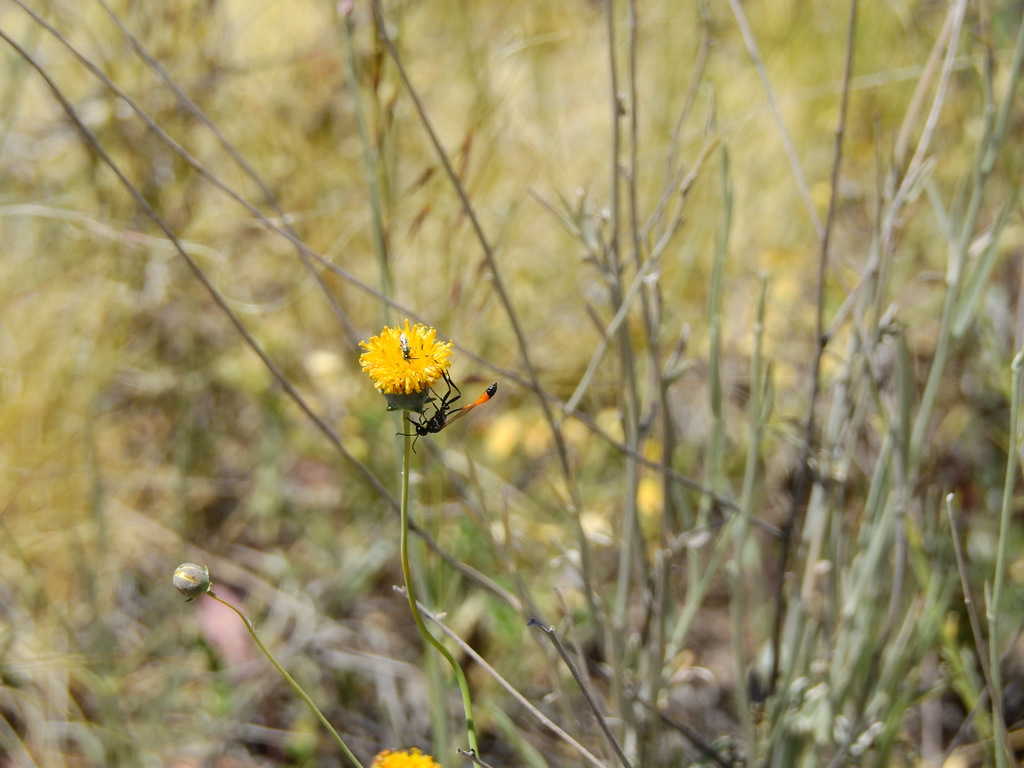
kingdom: Plantae
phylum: Tracheophyta
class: Magnoliopsida
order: Asterales
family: Asteraceae
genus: Thelesperma
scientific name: Thelesperma megapotamicum
